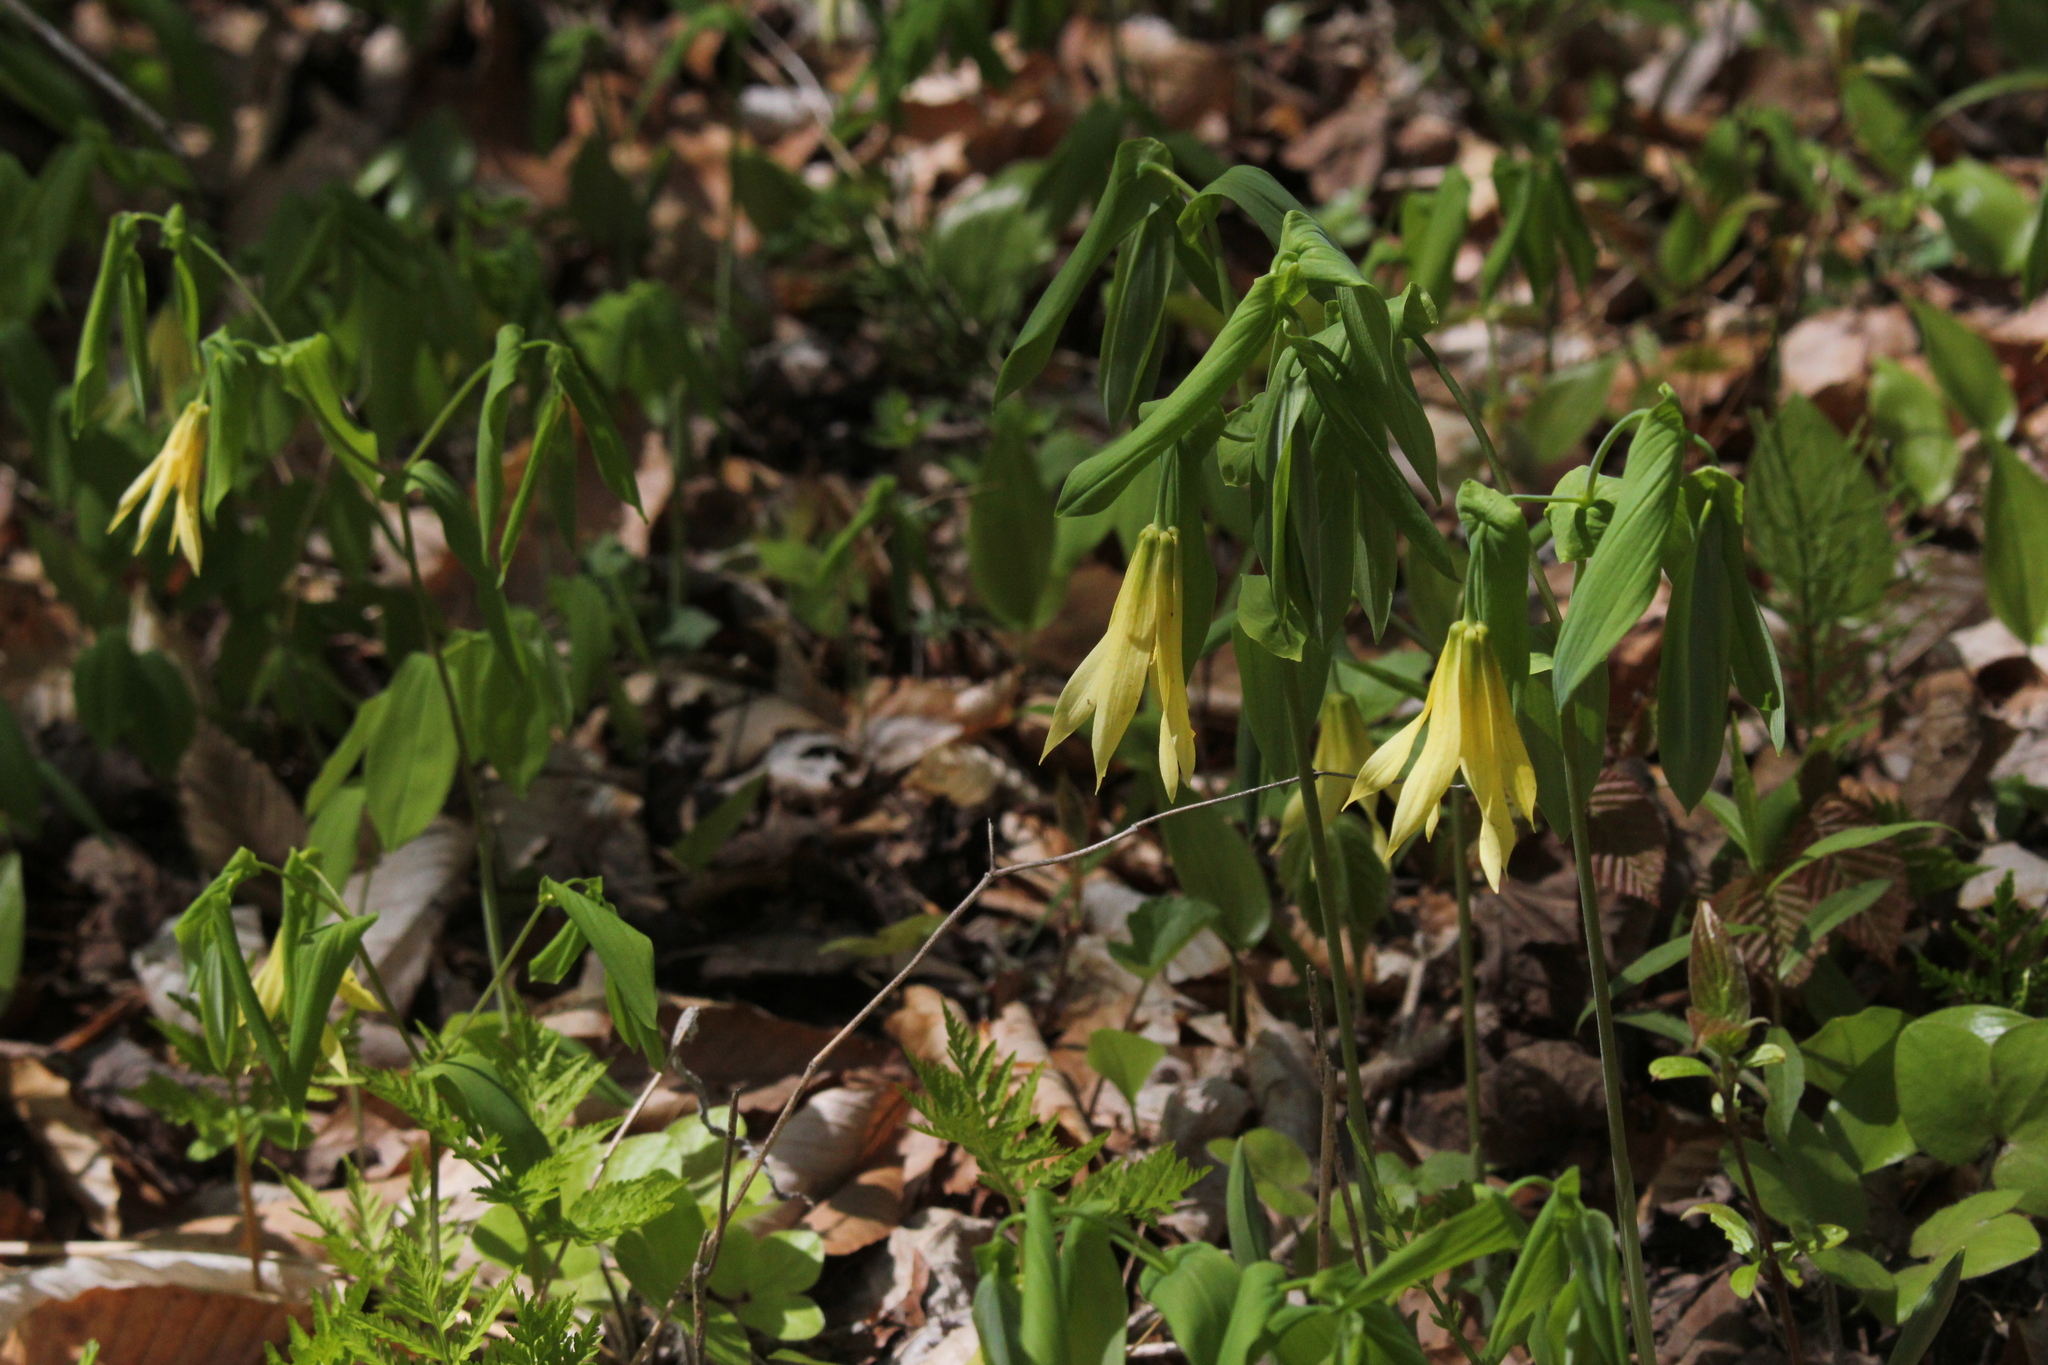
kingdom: Plantae
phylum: Tracheophyta
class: Liliopsida
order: Liliales
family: Colchicaceae
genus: Uvularia
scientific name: Uvularia grandiflora
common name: Bellwort
